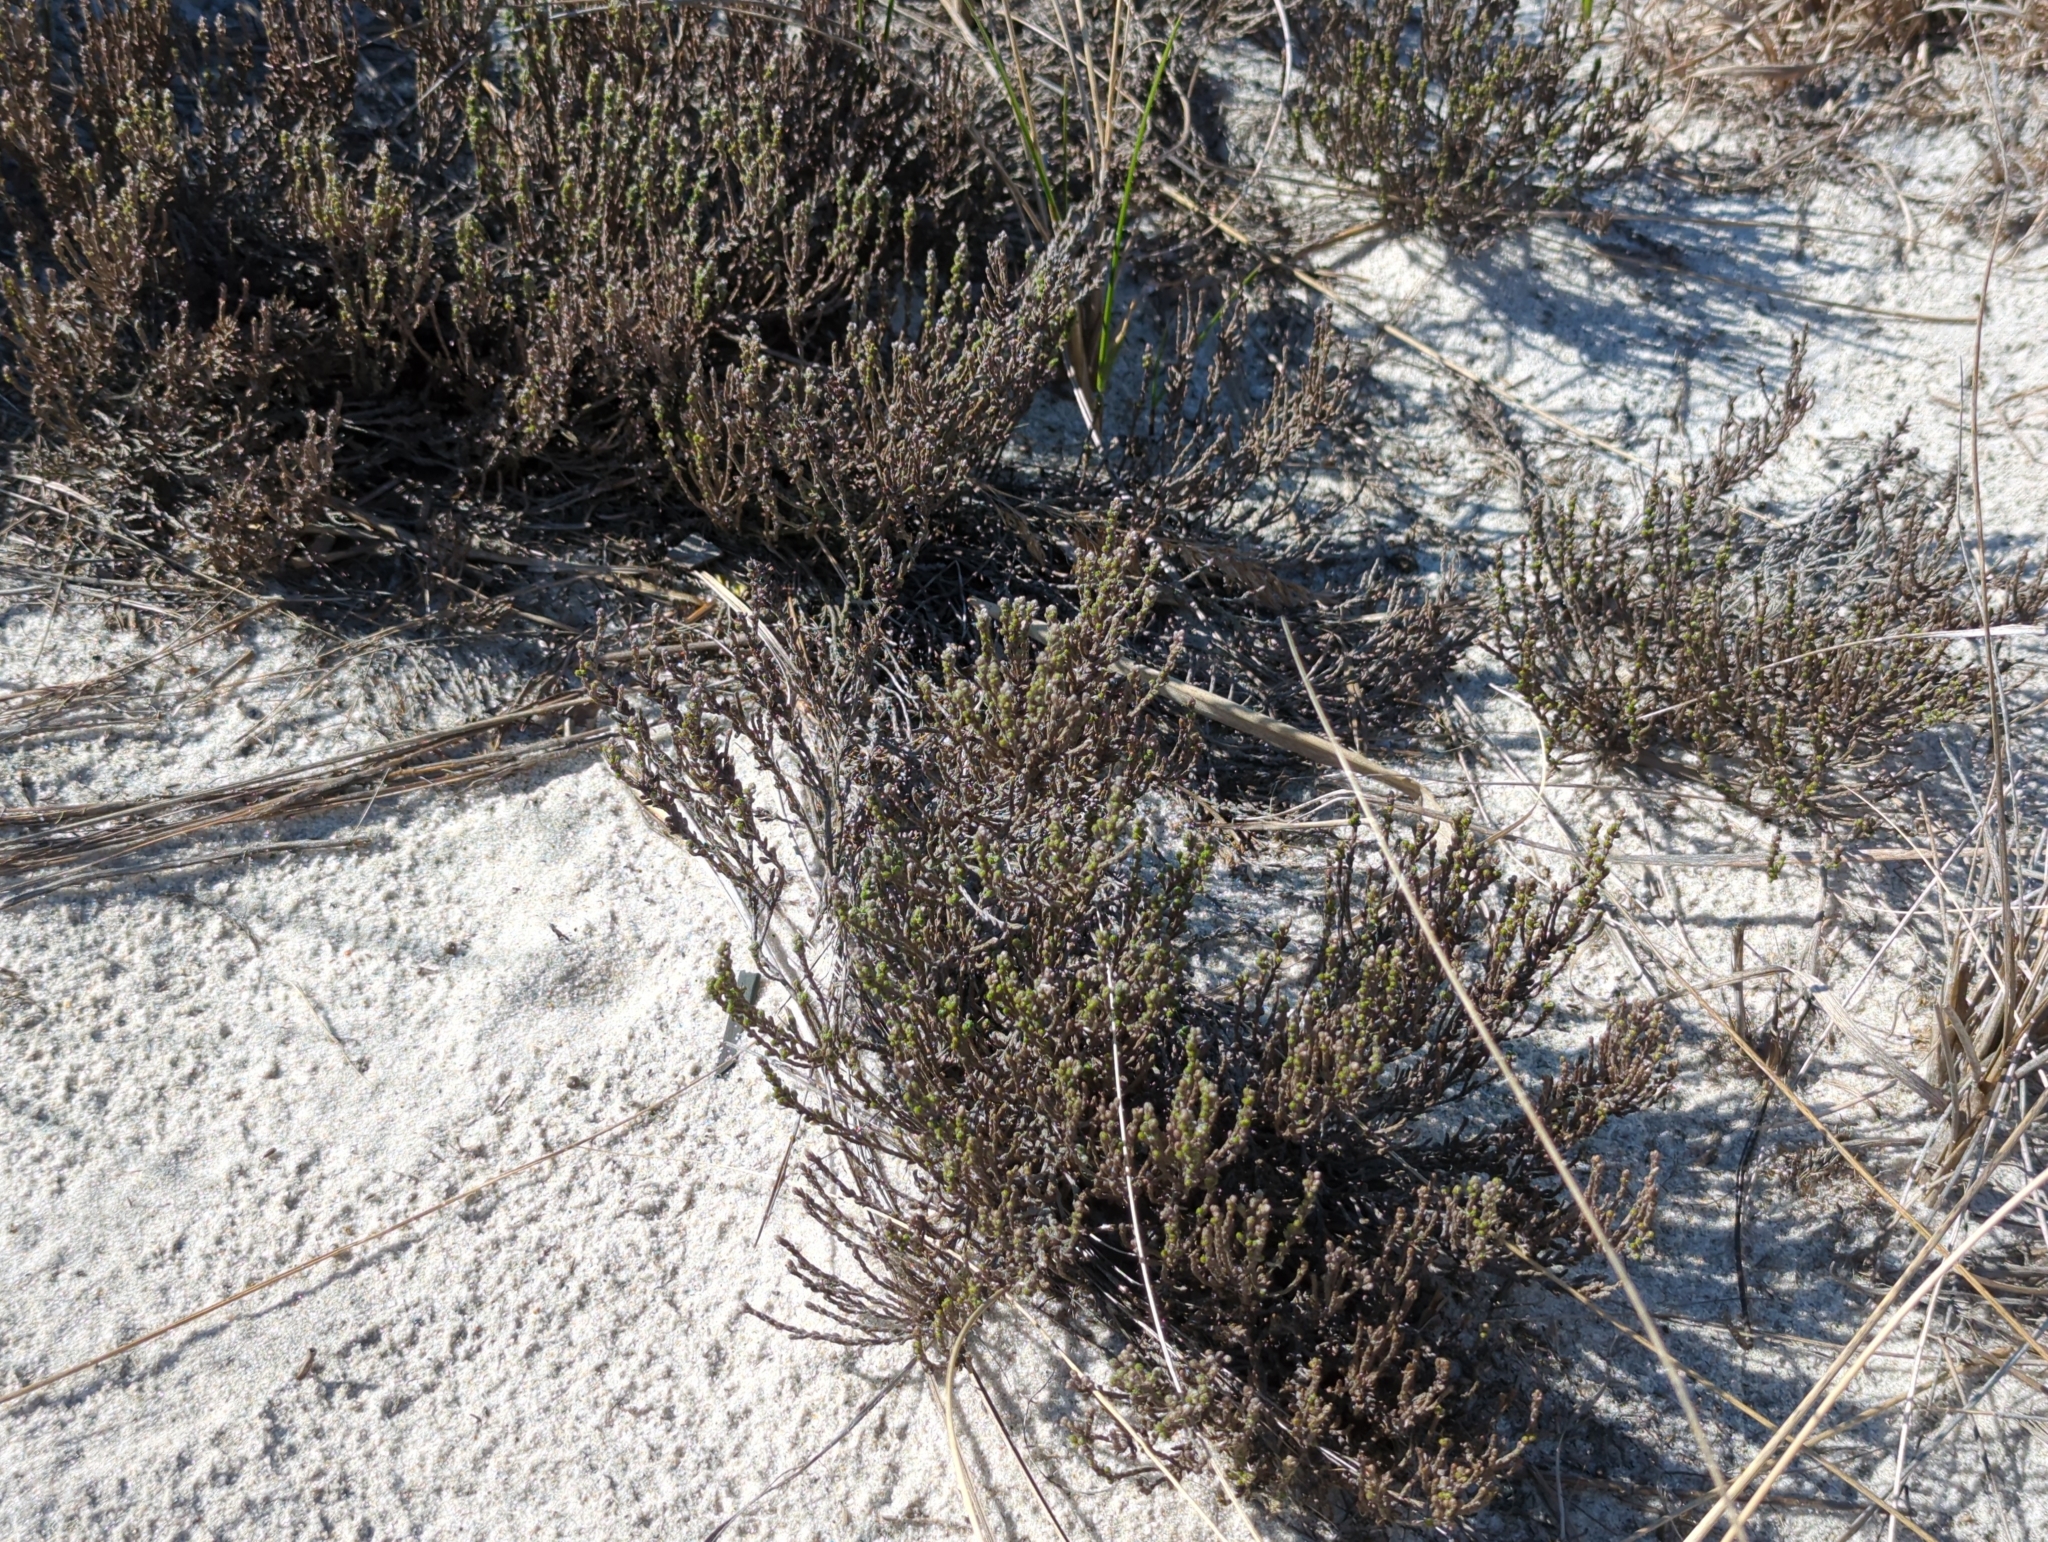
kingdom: Plantae
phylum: Tracheophyta
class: Magnoliopsida
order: Malvales
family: Cistaceae
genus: Hudsonia
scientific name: Hudsonia tomentosa
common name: Beach-heath
